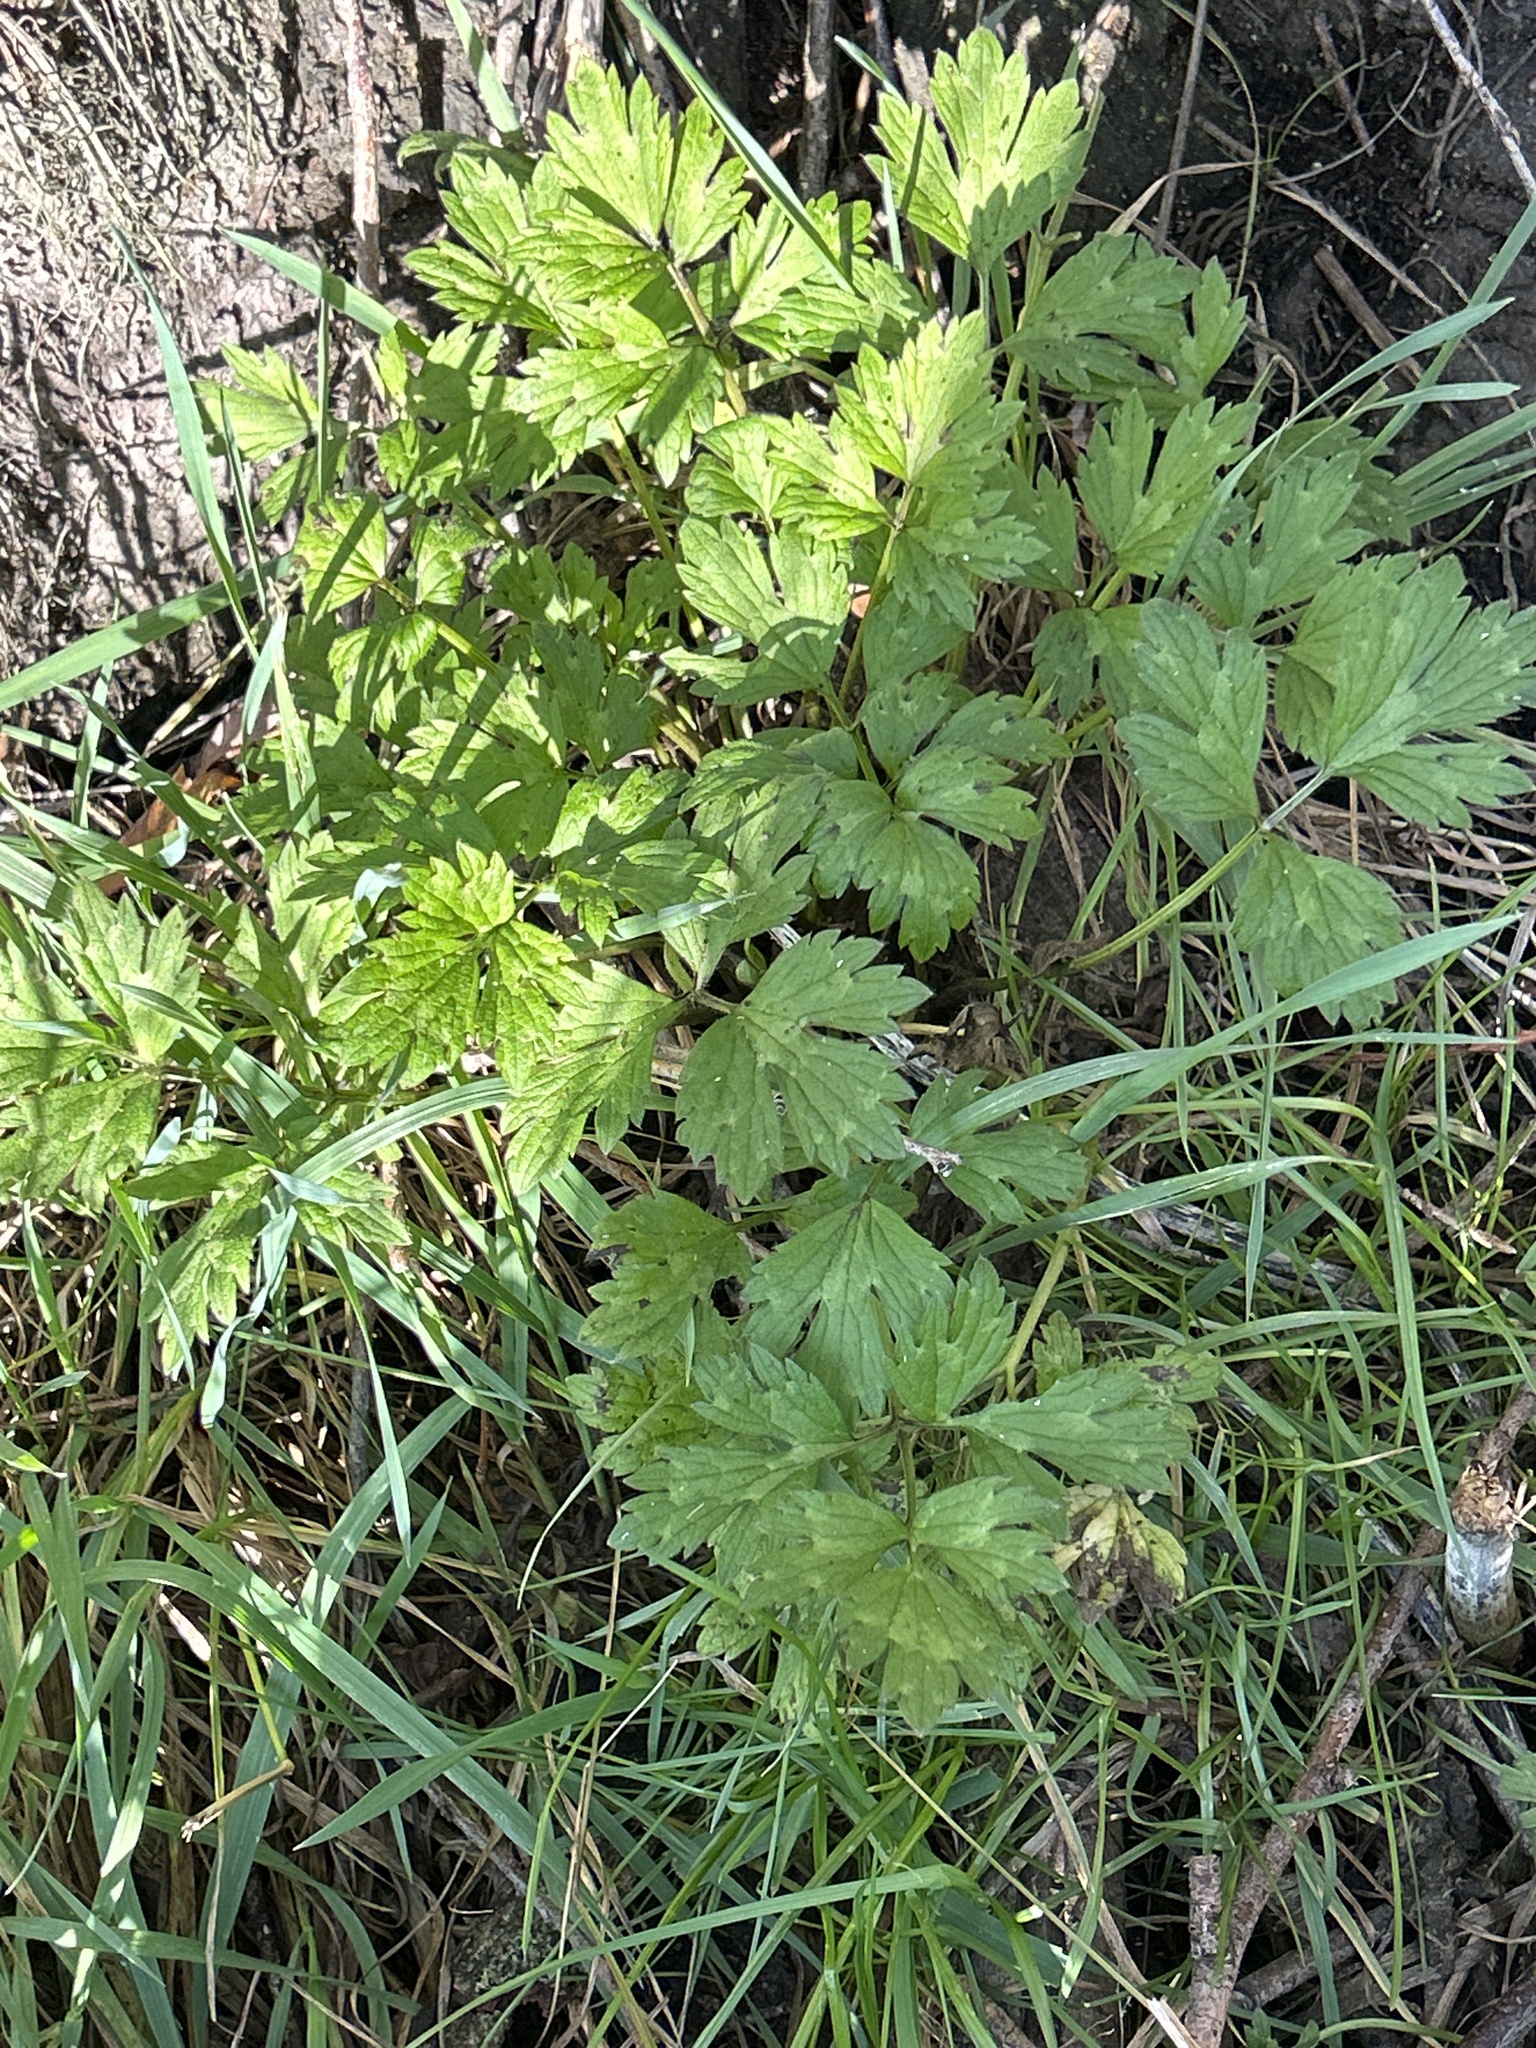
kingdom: Plantae
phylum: Tracheophyta
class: Magnoliopsida
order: Ranunculales
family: Ranunculaceae
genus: Ranunculus
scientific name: Ranunculus repens
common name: Creeping buttercup
